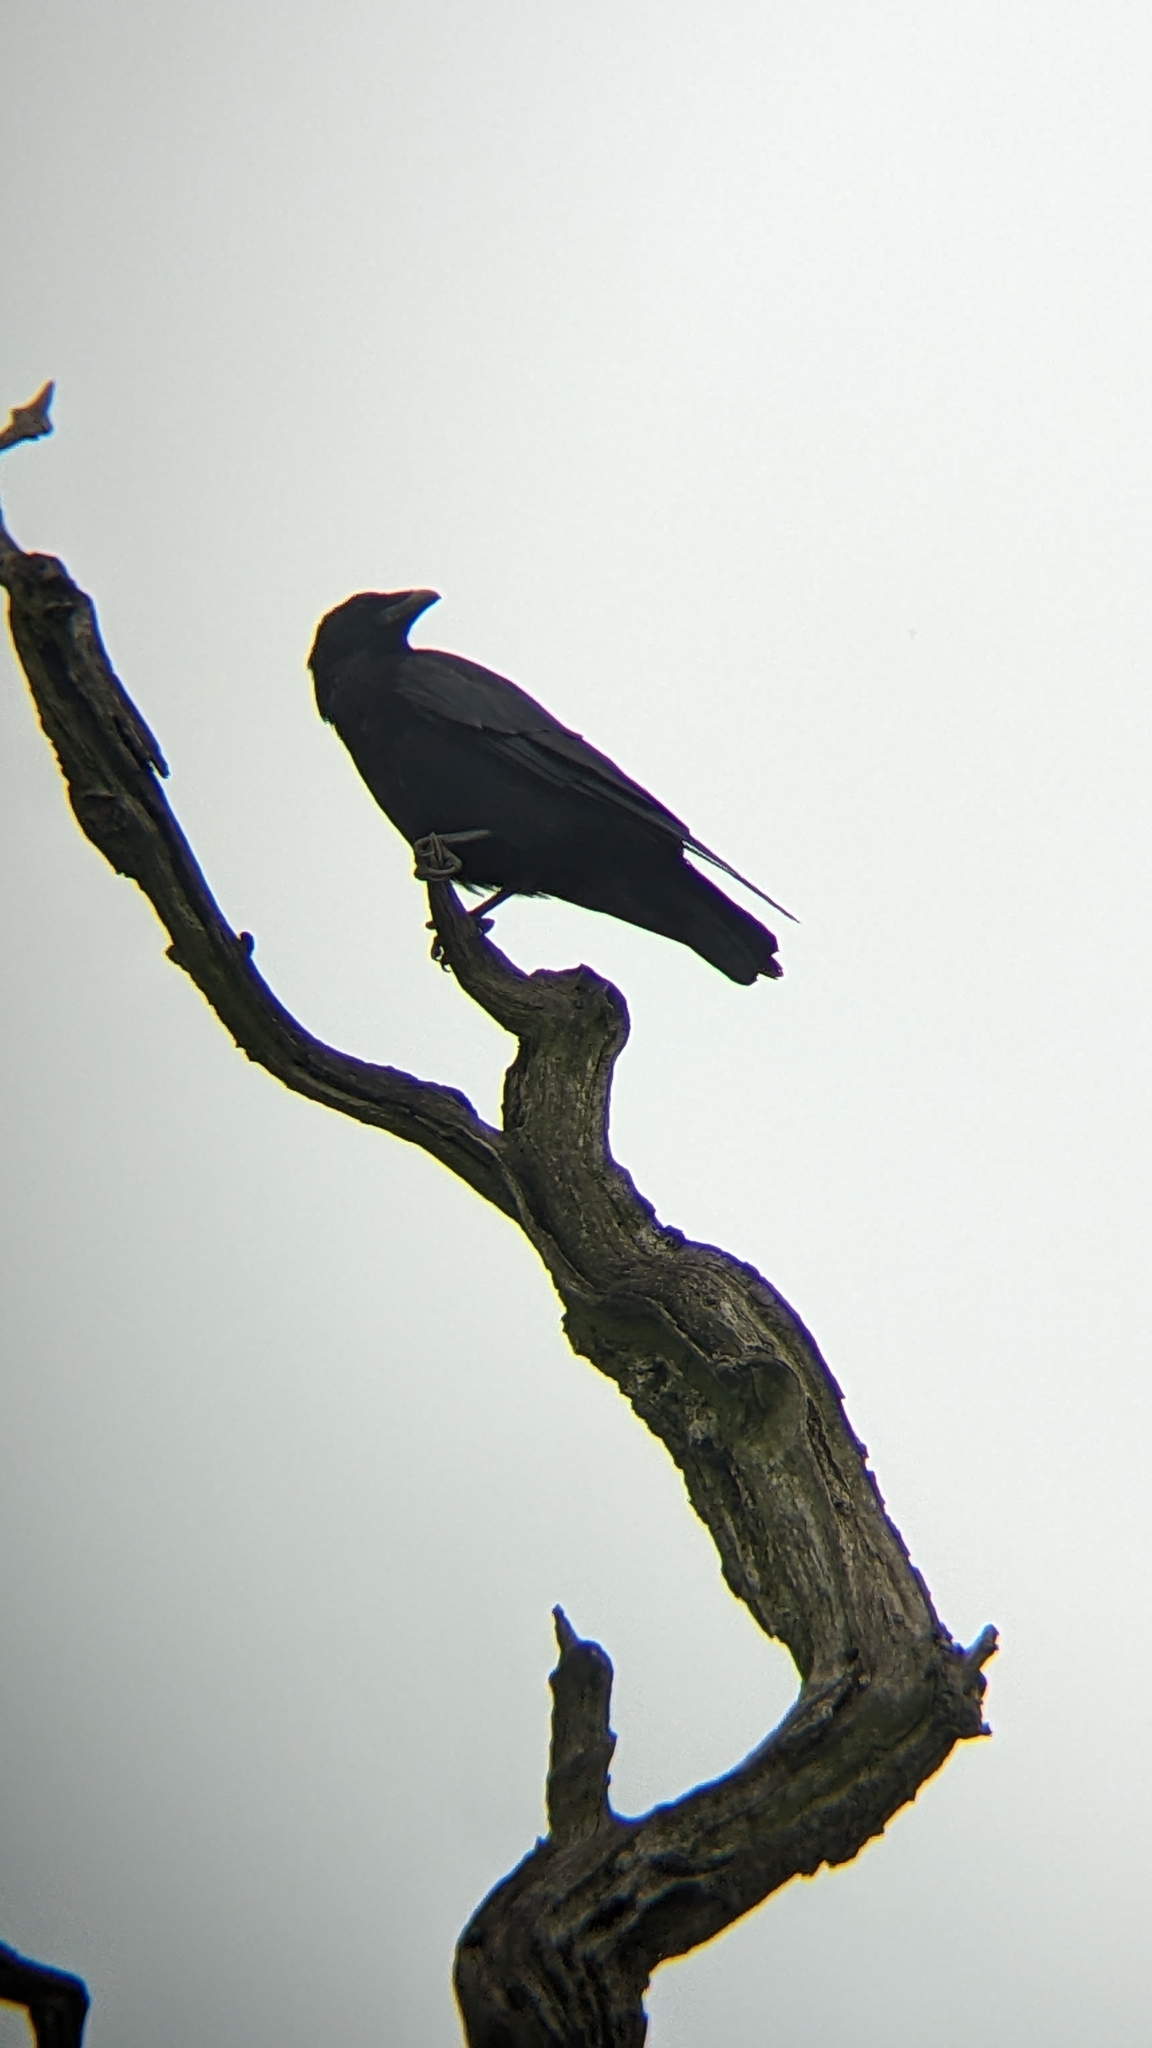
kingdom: Animalia
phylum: Chordata
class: Aves
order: Passeriformes
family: Corvidae
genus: Corvus
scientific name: Corvus corone
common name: Carrion crow
